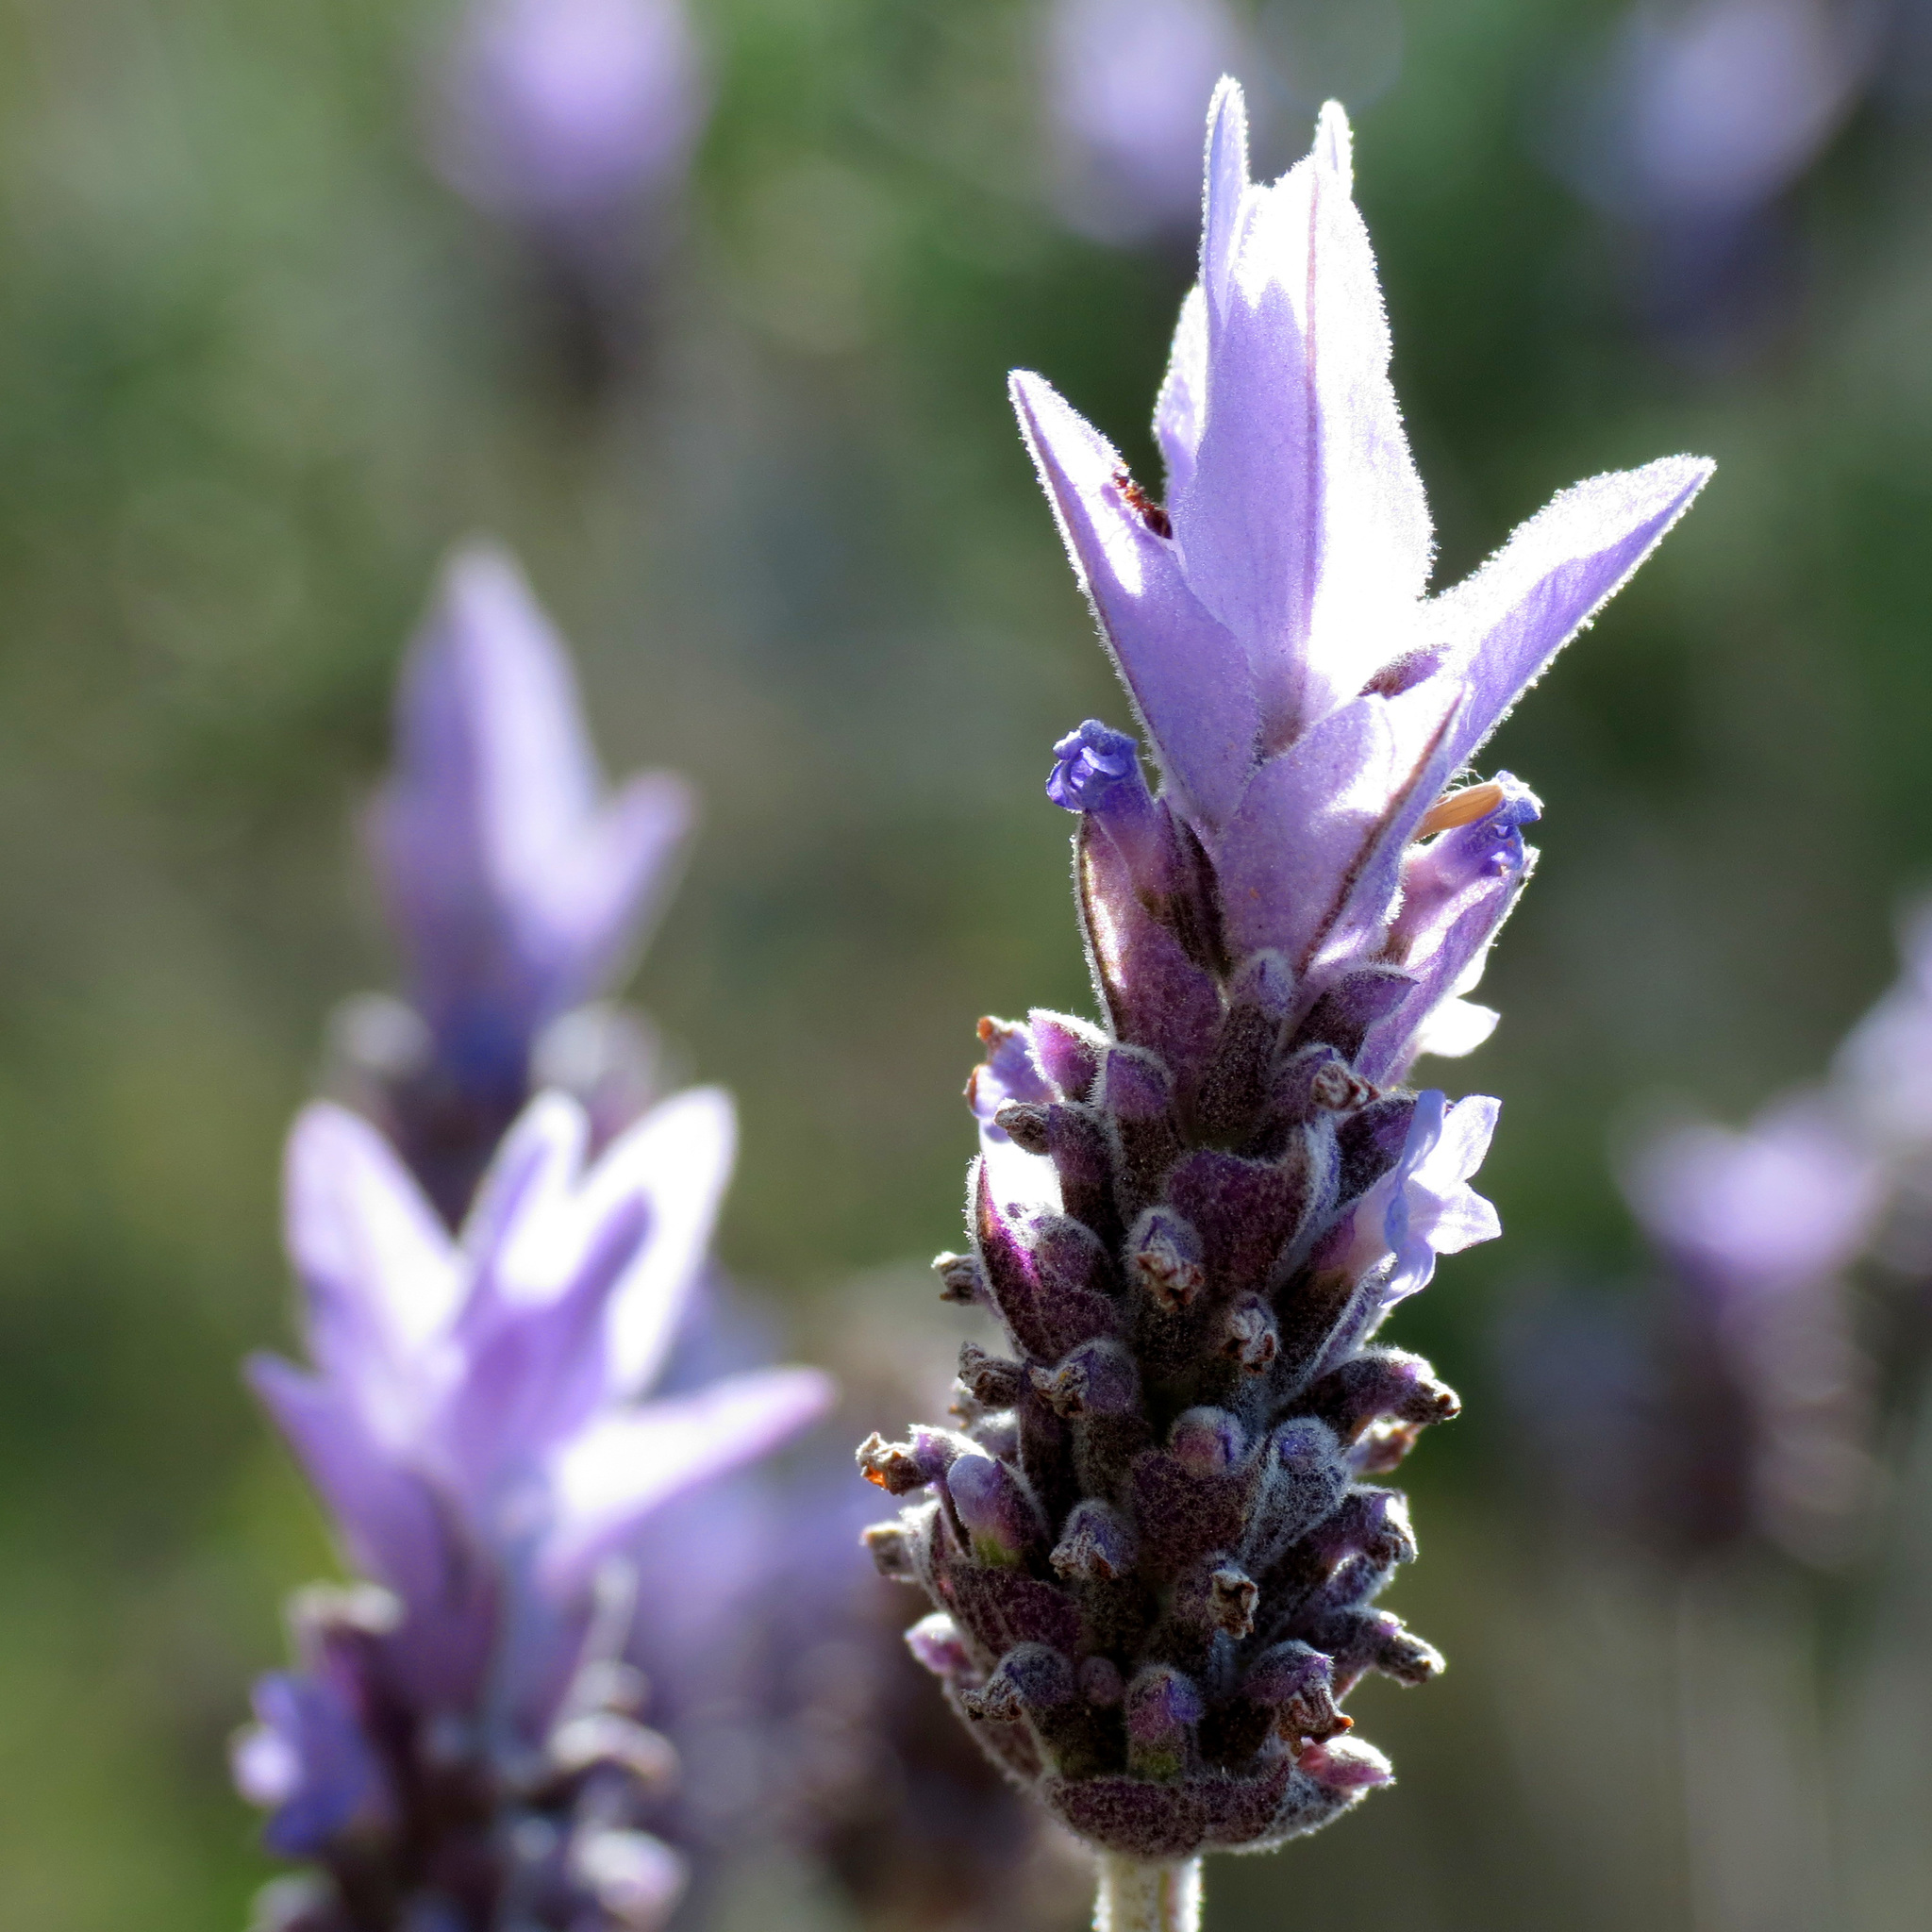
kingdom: Plantae
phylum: Tracheophyta
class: Magnoliopsida
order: Lamiales
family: Lamiaceae
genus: Lavandula
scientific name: Lavandula dentata
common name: French lavender
